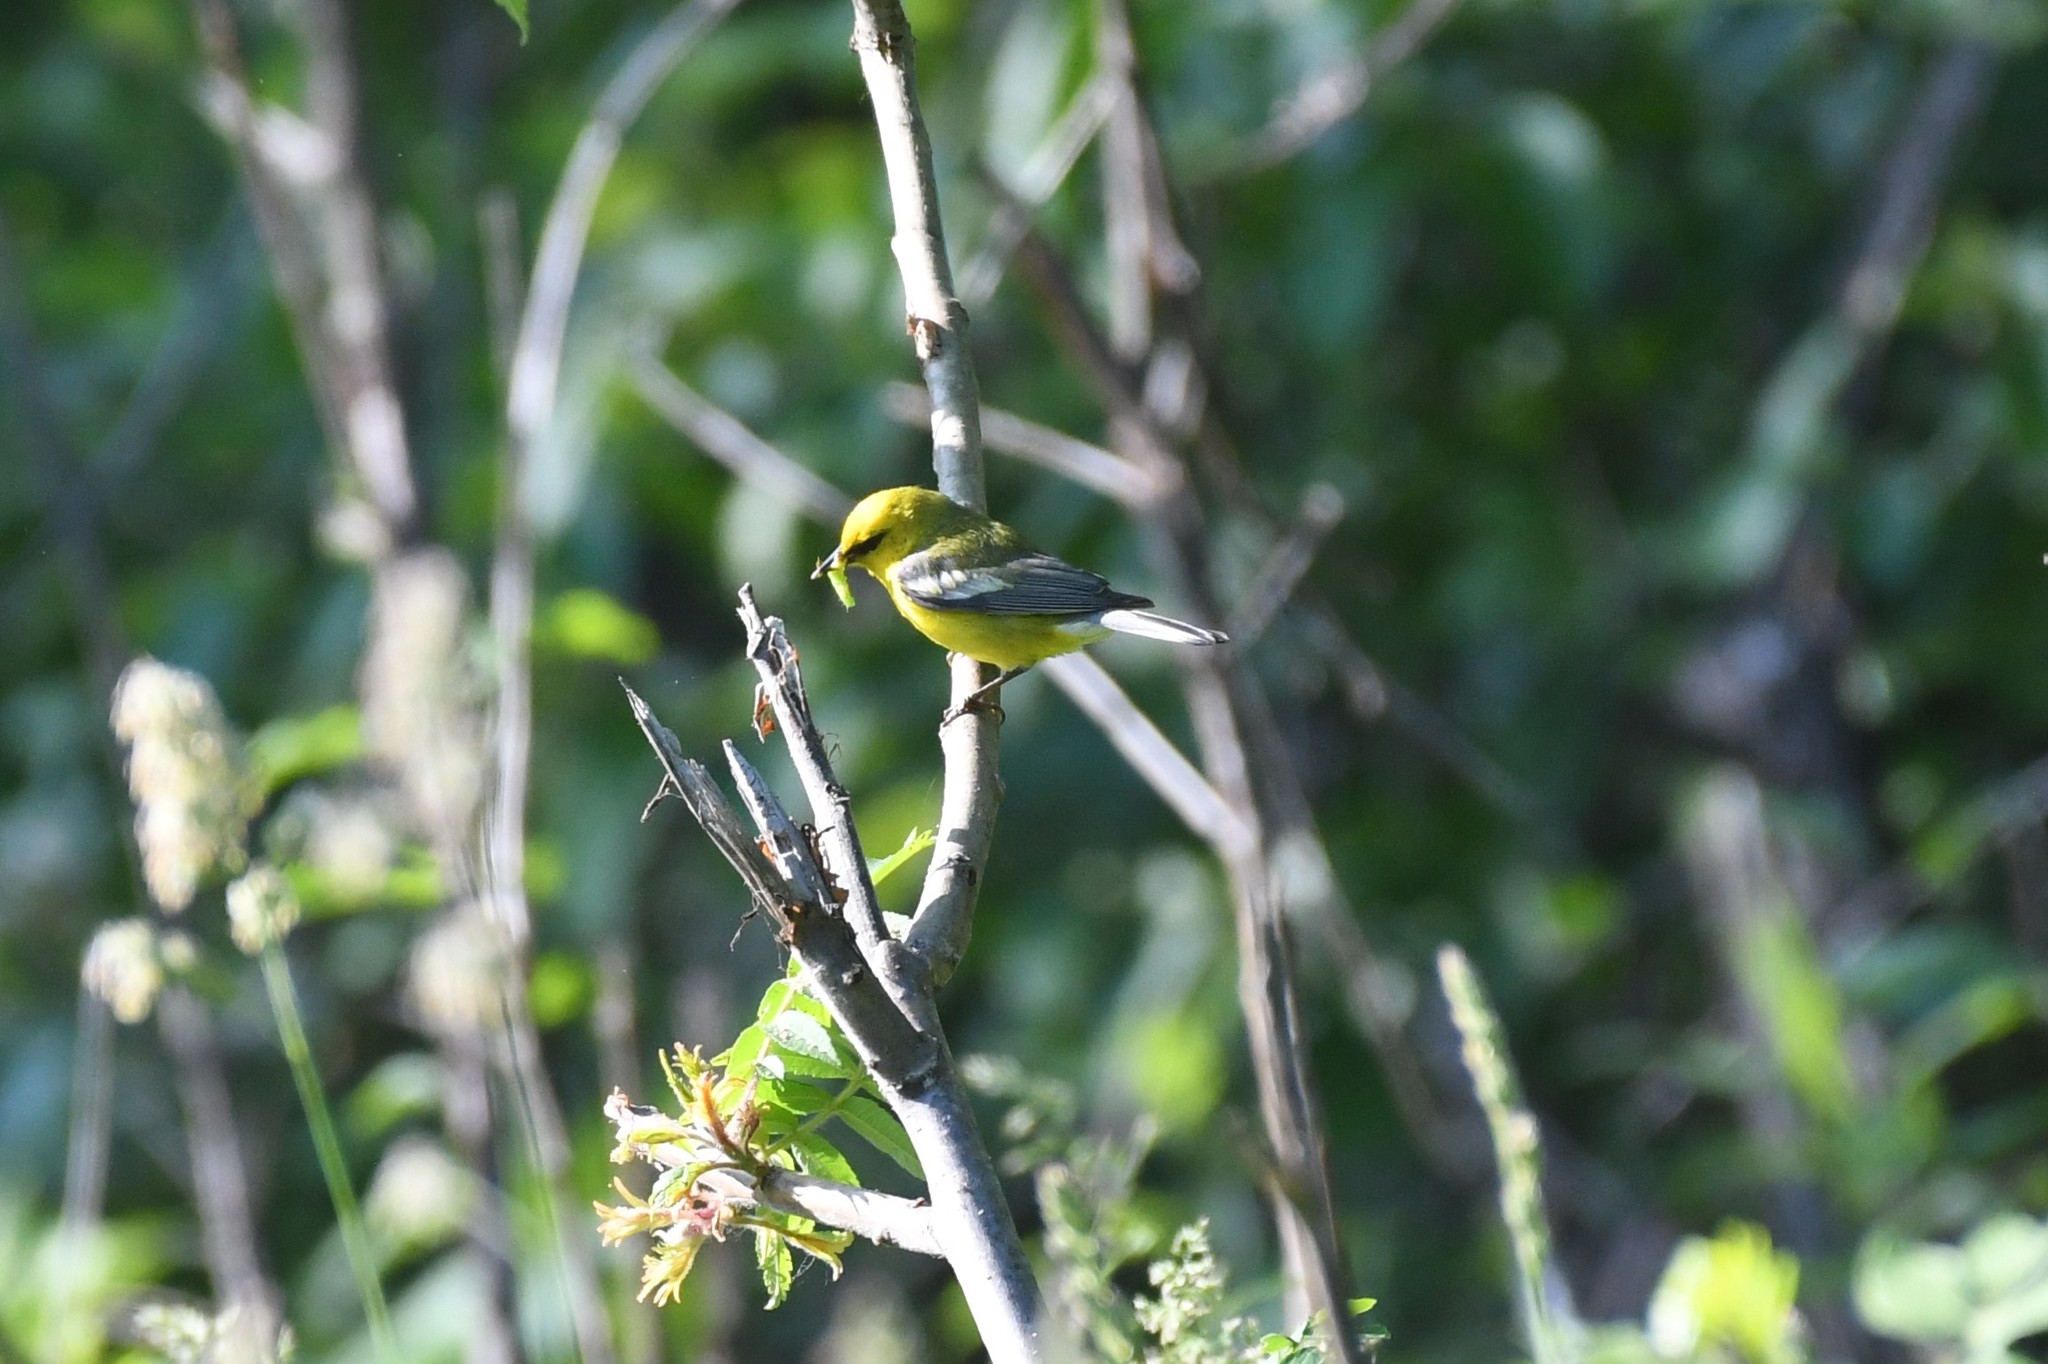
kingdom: Animalia
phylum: Chordata
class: Aves
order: Passeriformes
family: Parulidae
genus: Vermivora
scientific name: Vermivora cyanoptera
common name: Blue-winged warbler
